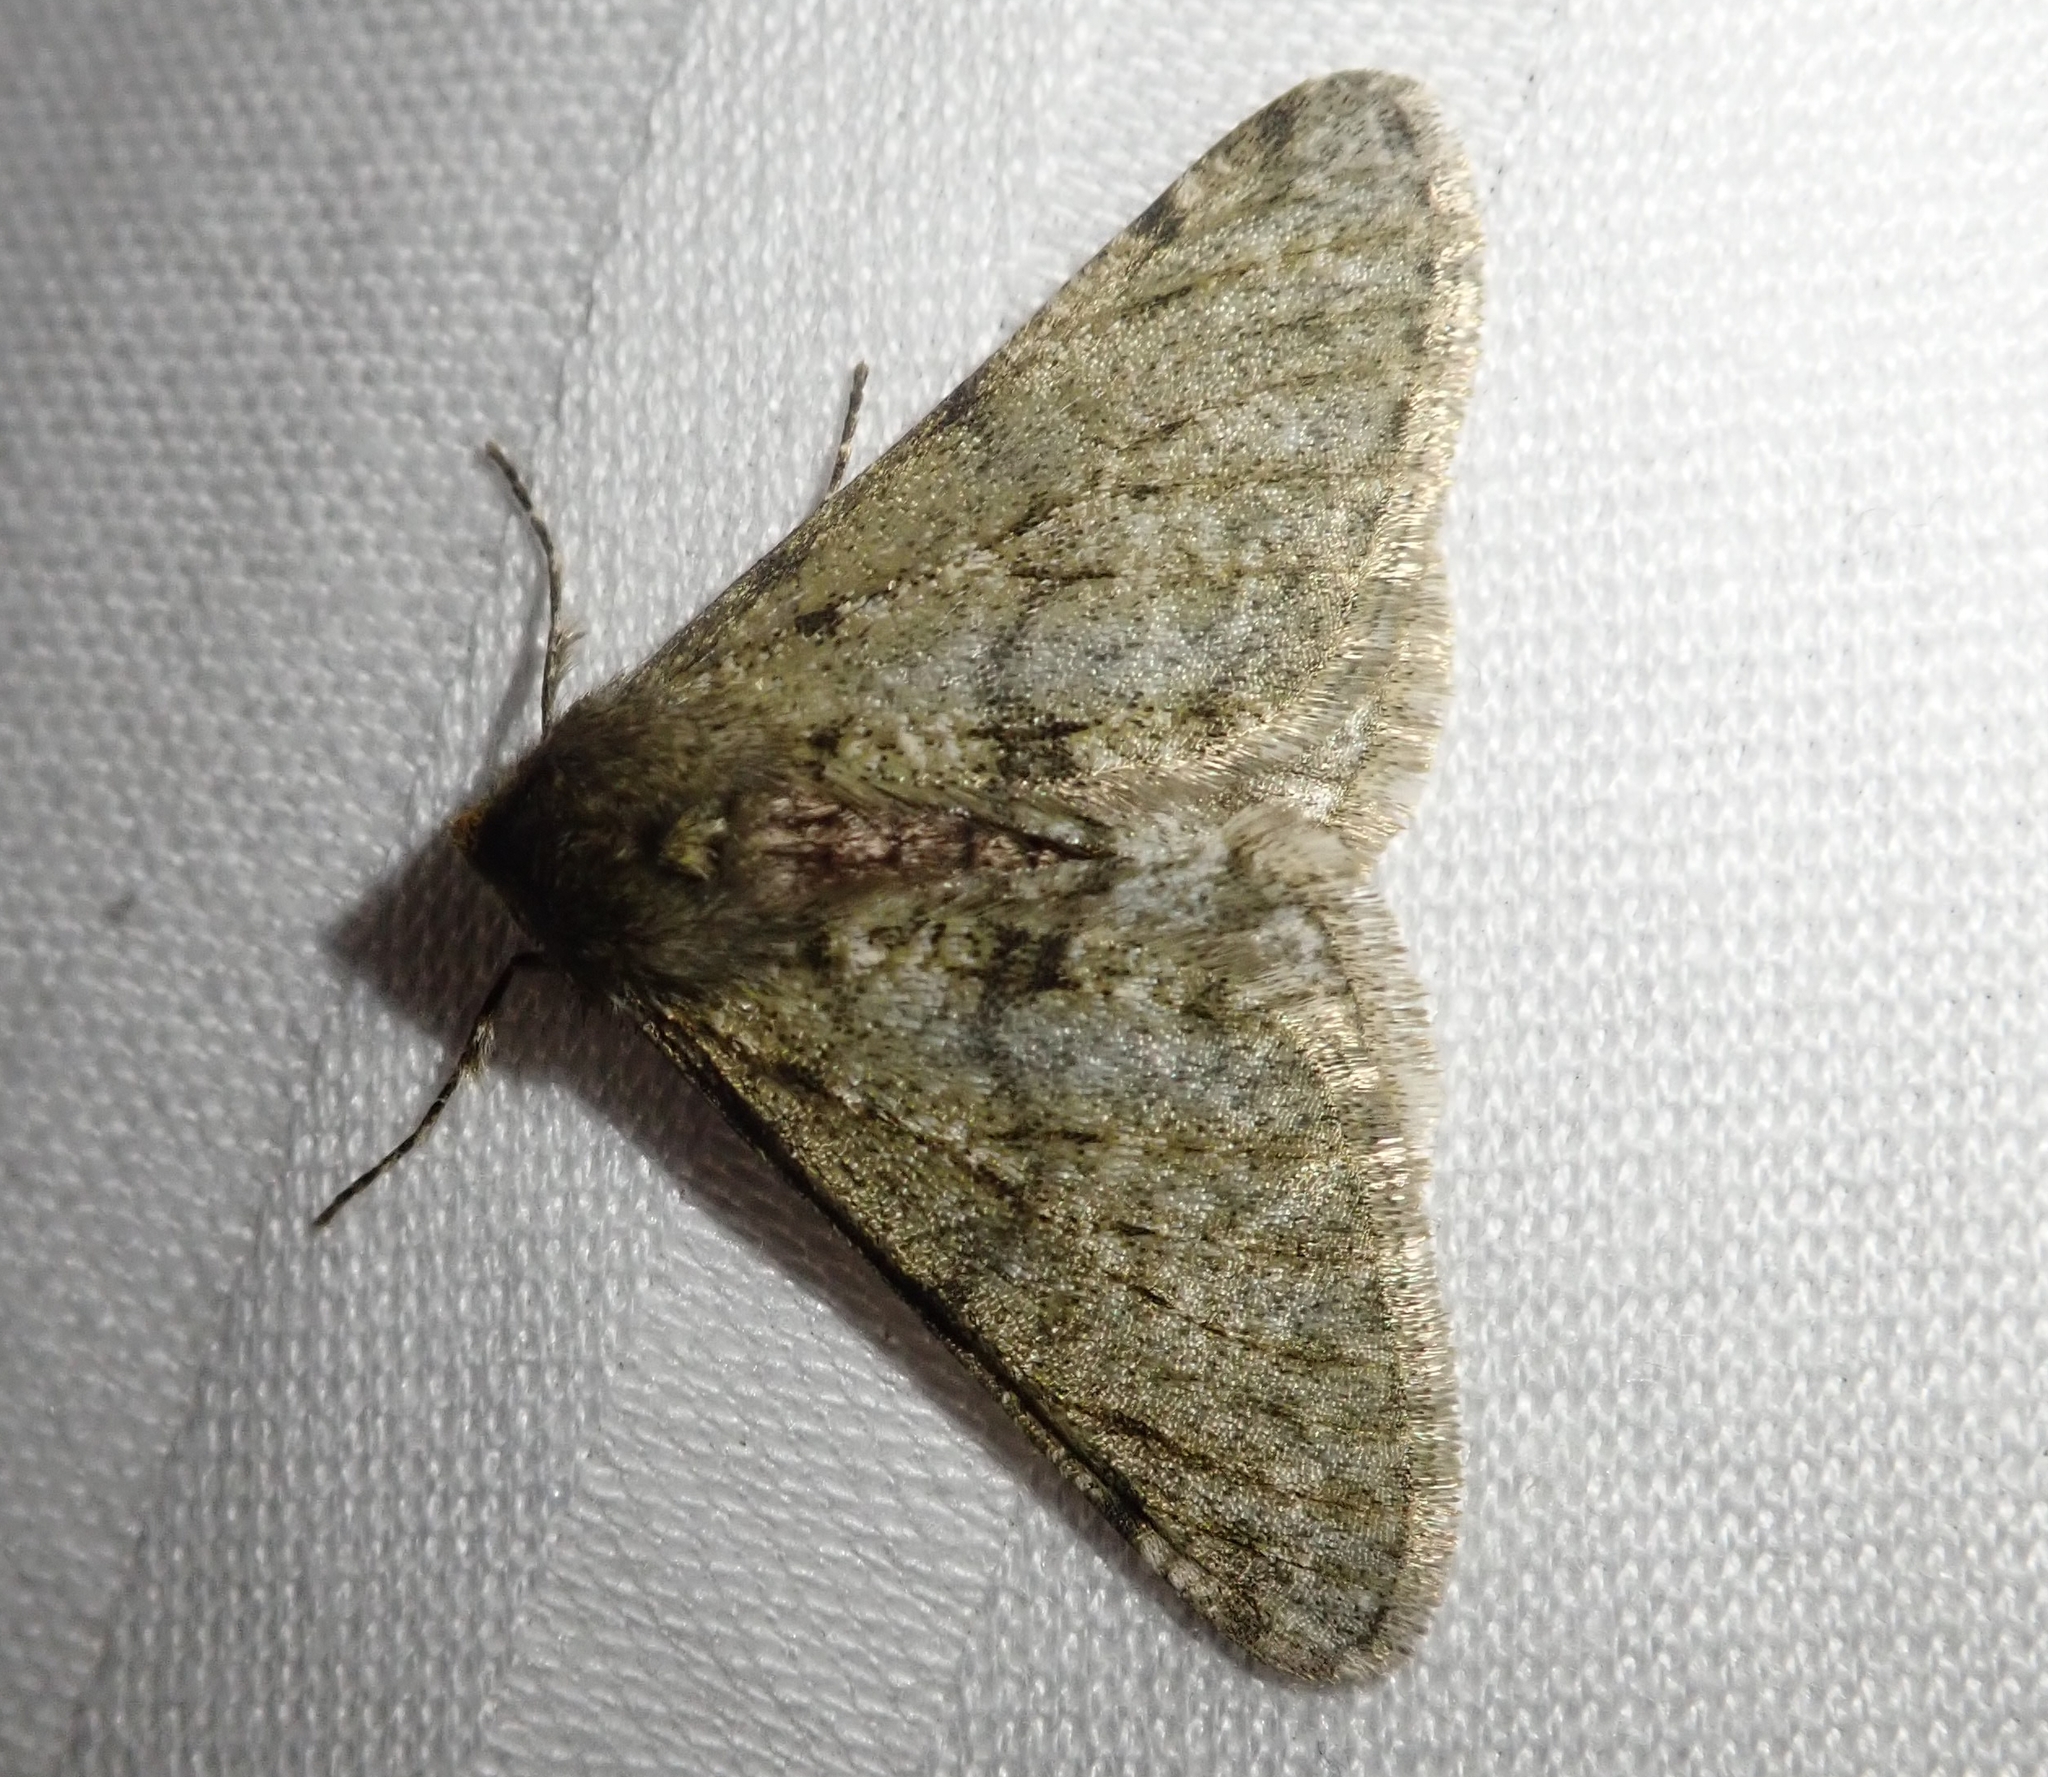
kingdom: Animalia
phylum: Arthropoda
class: Insecta
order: Lepidoptera
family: Geometridae
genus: Phigalia
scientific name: Phigalia pilosaria
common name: Pale brindled beauty
